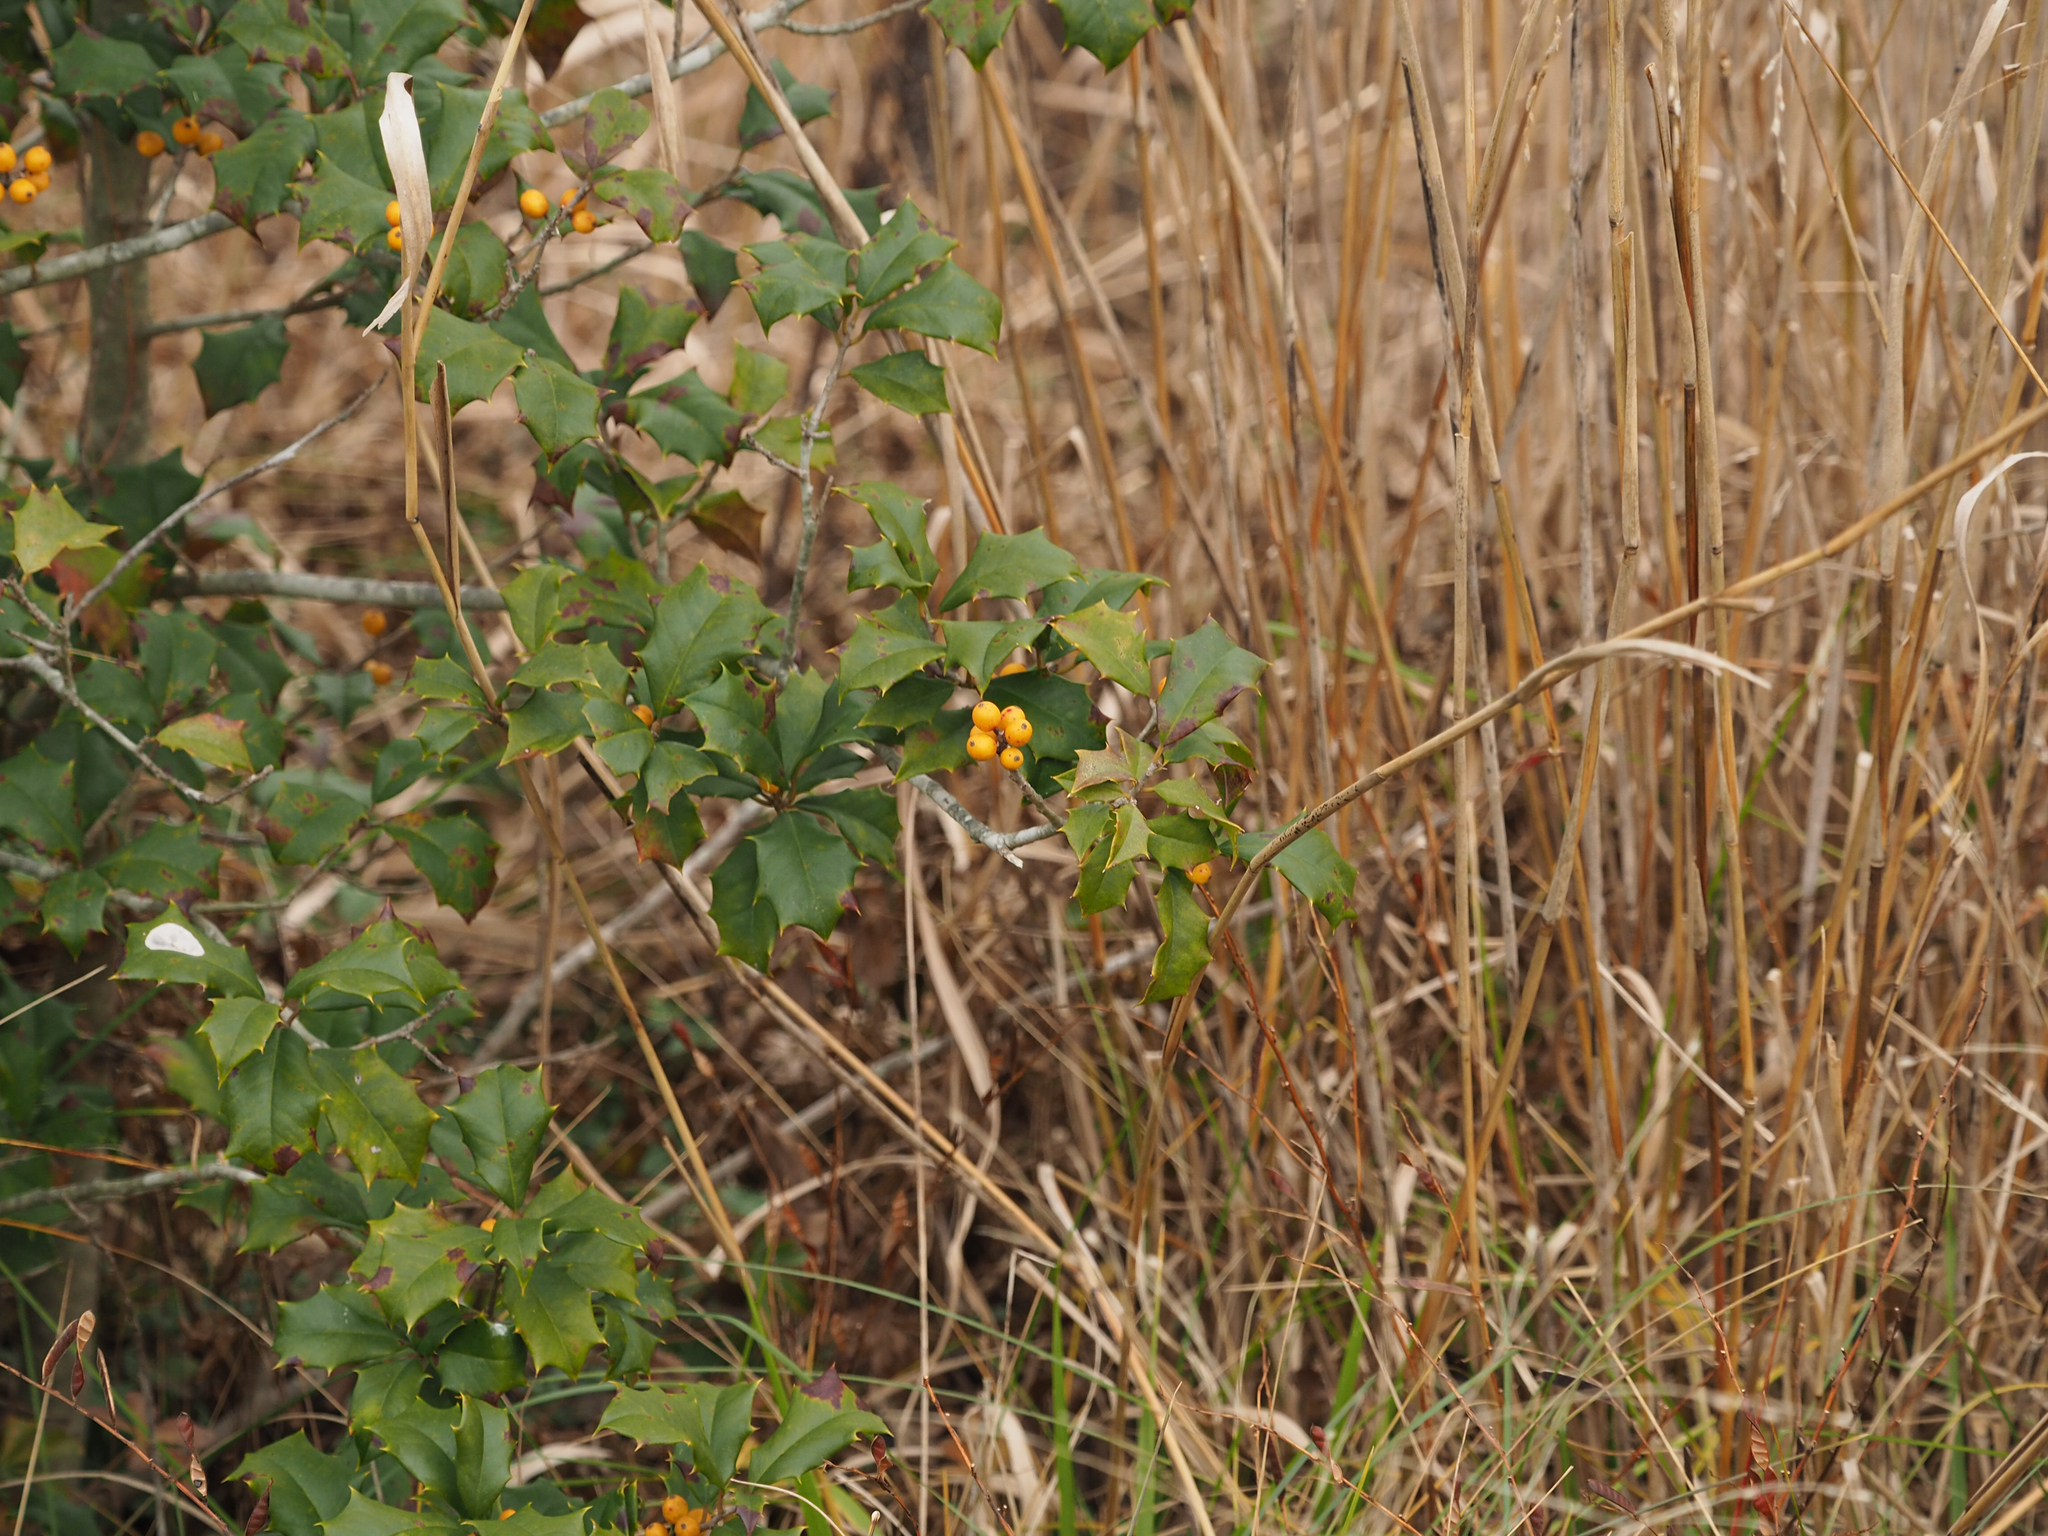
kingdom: Plantae
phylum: Tracheophyta
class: Magnoliopsida
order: Aquifoliales
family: Aquifoliaceae
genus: Ilex
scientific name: Ilex opaca
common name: American holly
